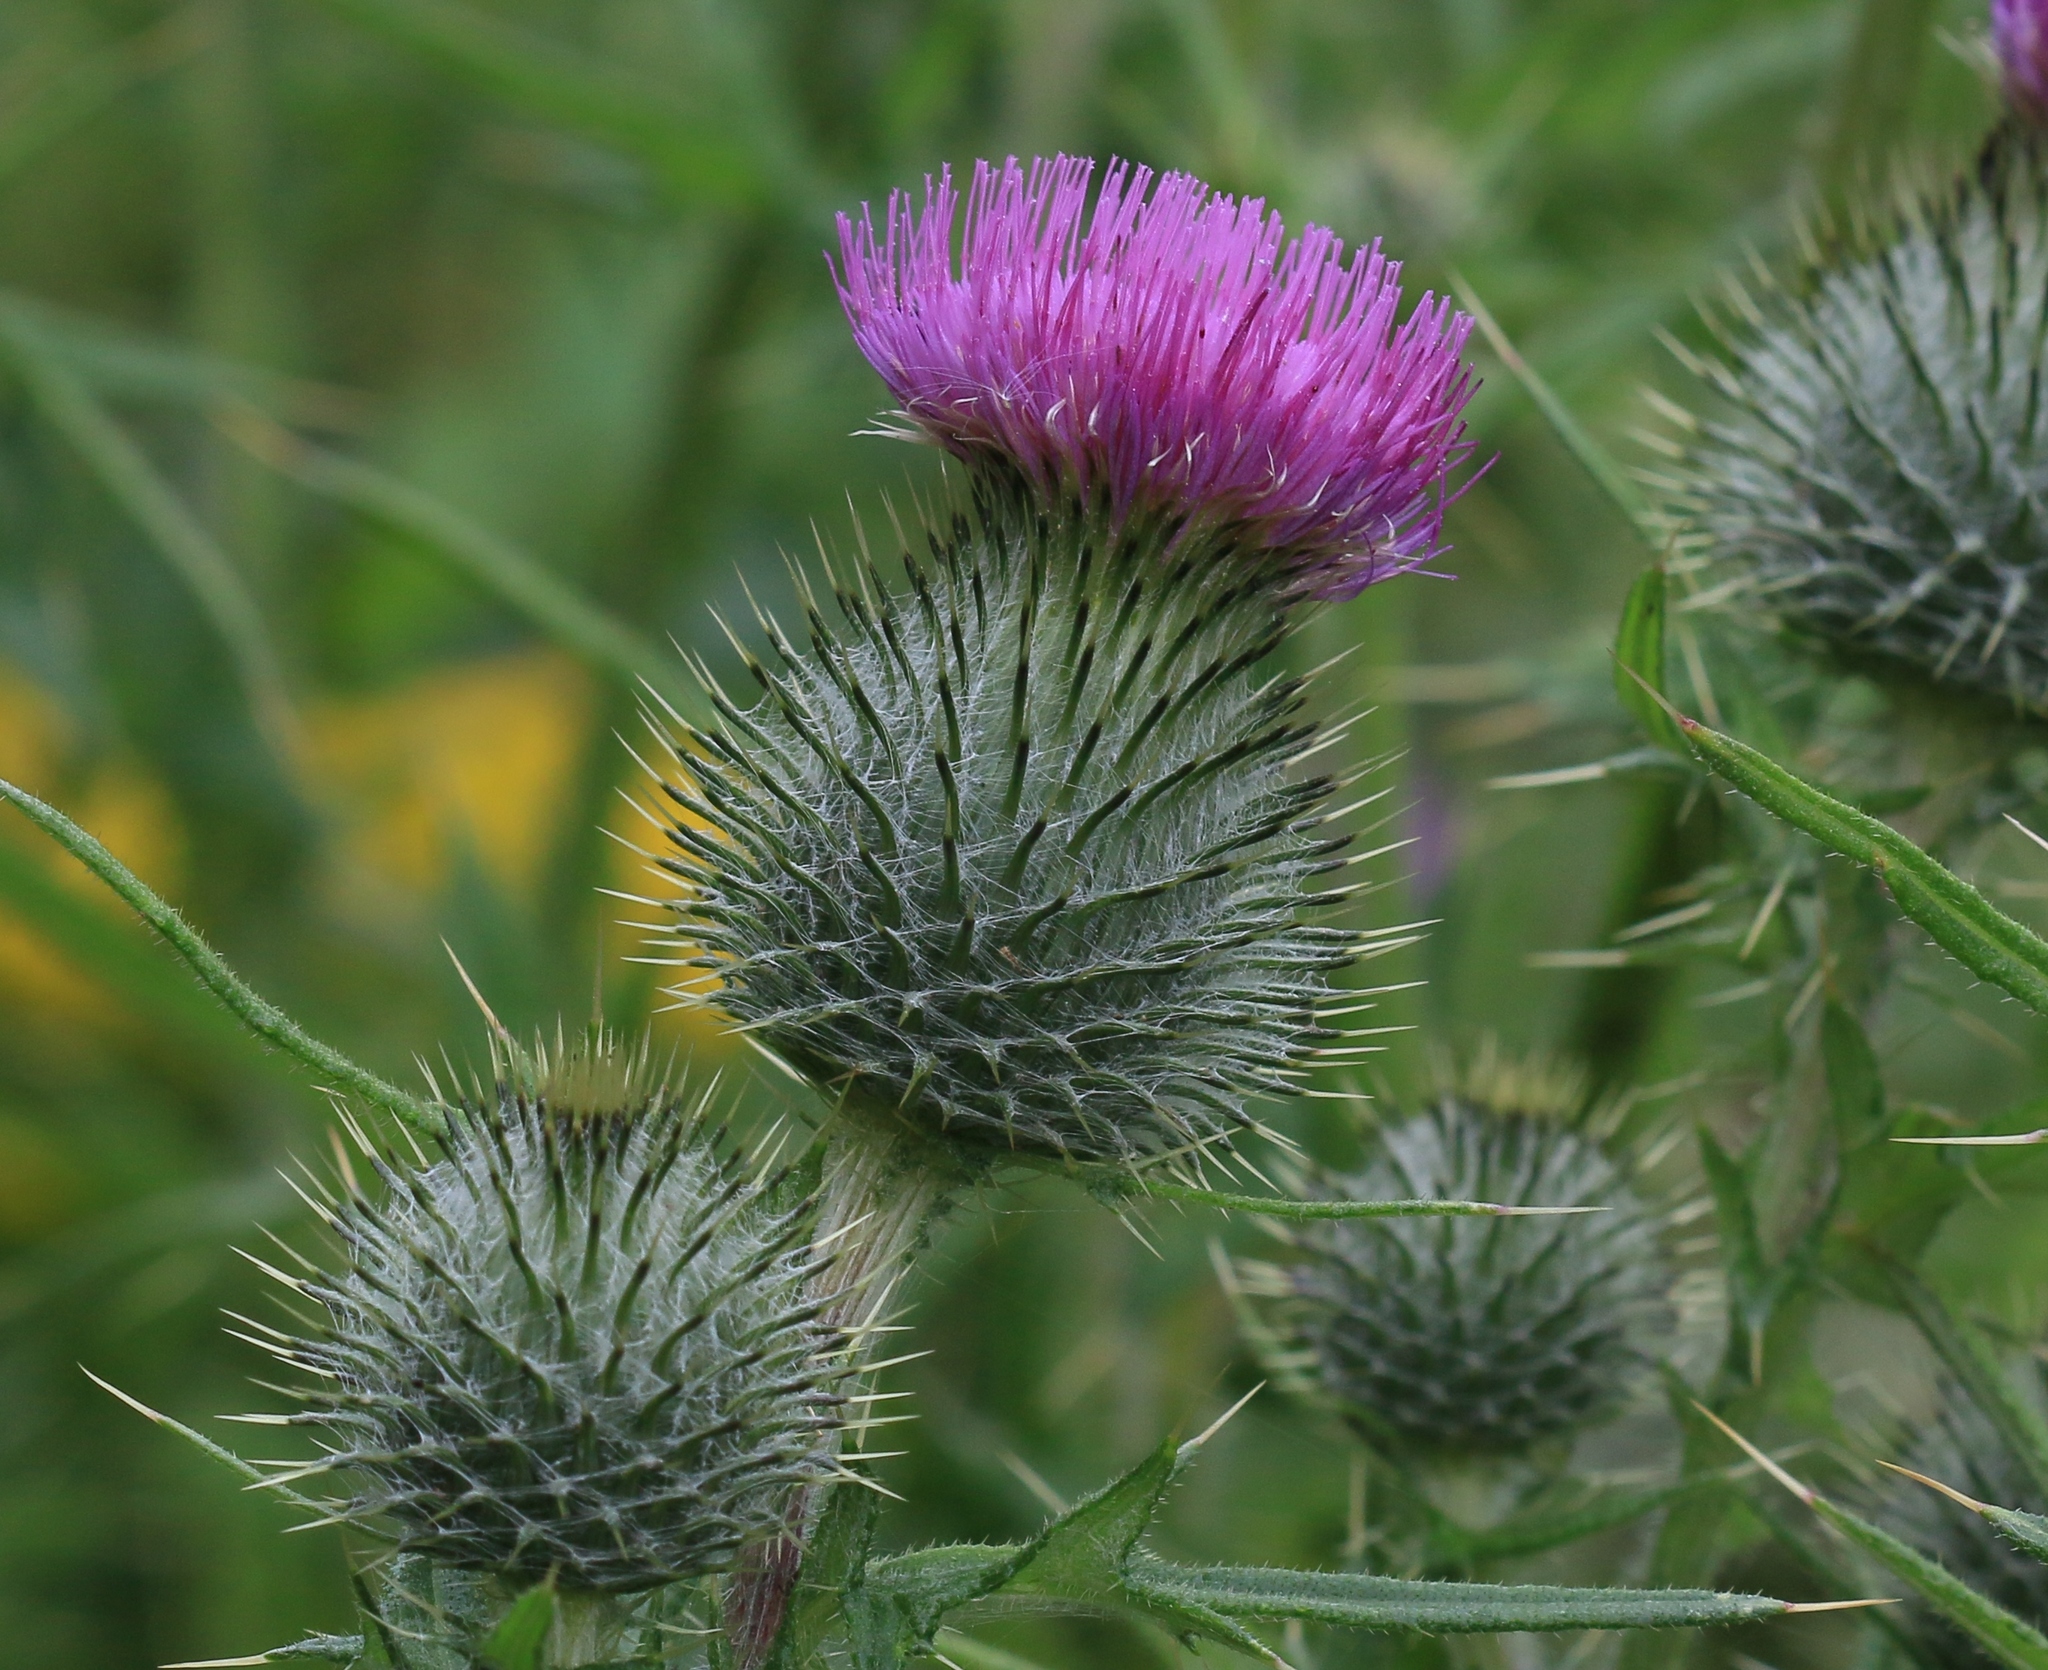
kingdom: Plantae
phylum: Tracheophyta
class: Magnoliopsida
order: Asterales
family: Asteraceae
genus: Cirsium
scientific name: Cirsium vulgare
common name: Bull thistle
